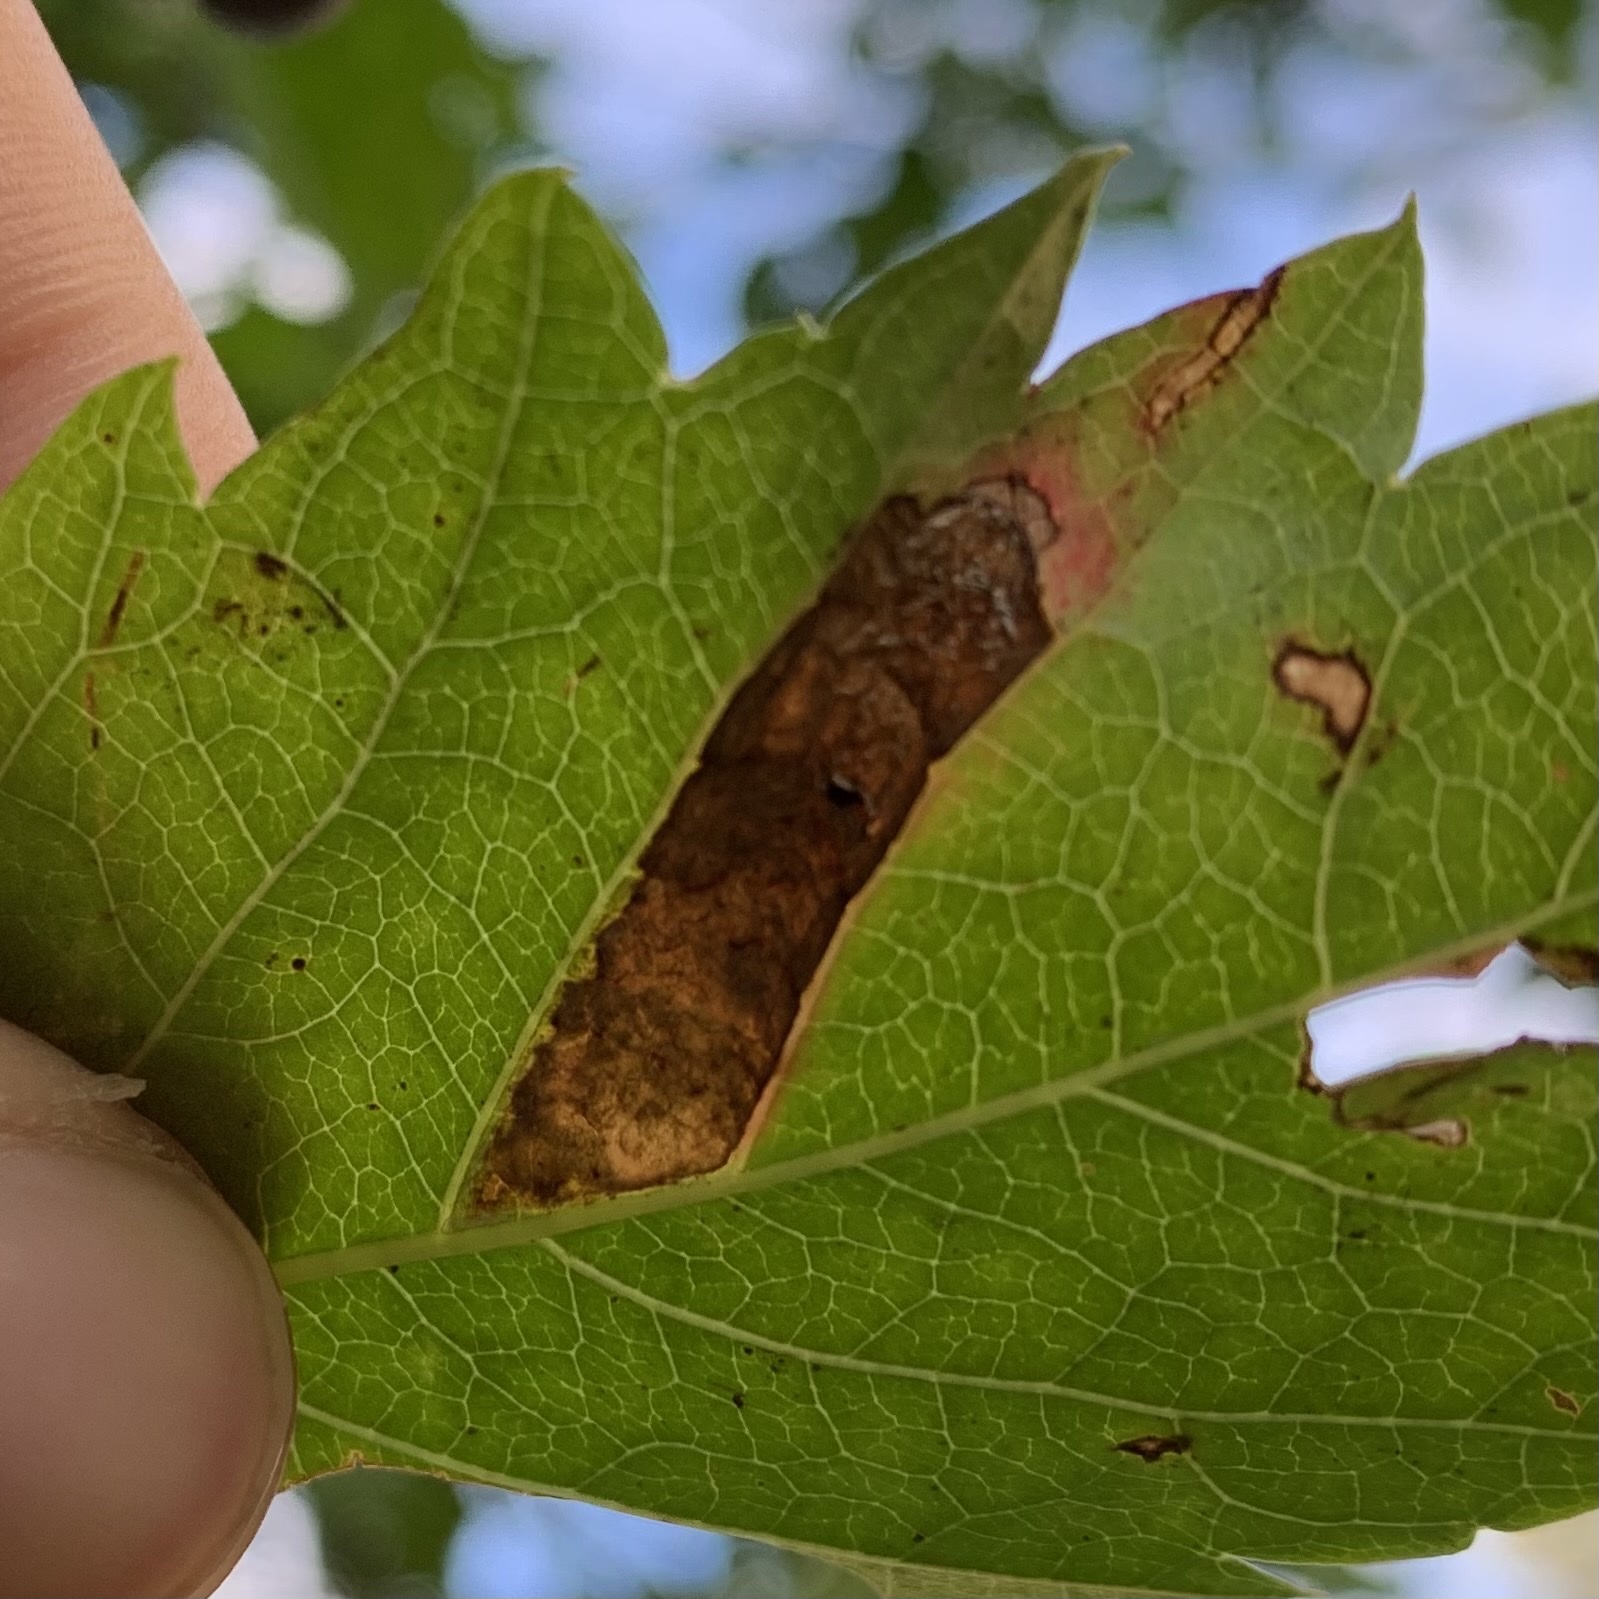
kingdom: Animalia
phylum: Arthropoda
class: Insecta
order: Lepidoptera
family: Gracillariidae
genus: Phyllocnistis
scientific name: Phyllocnistis ampelopsiella
